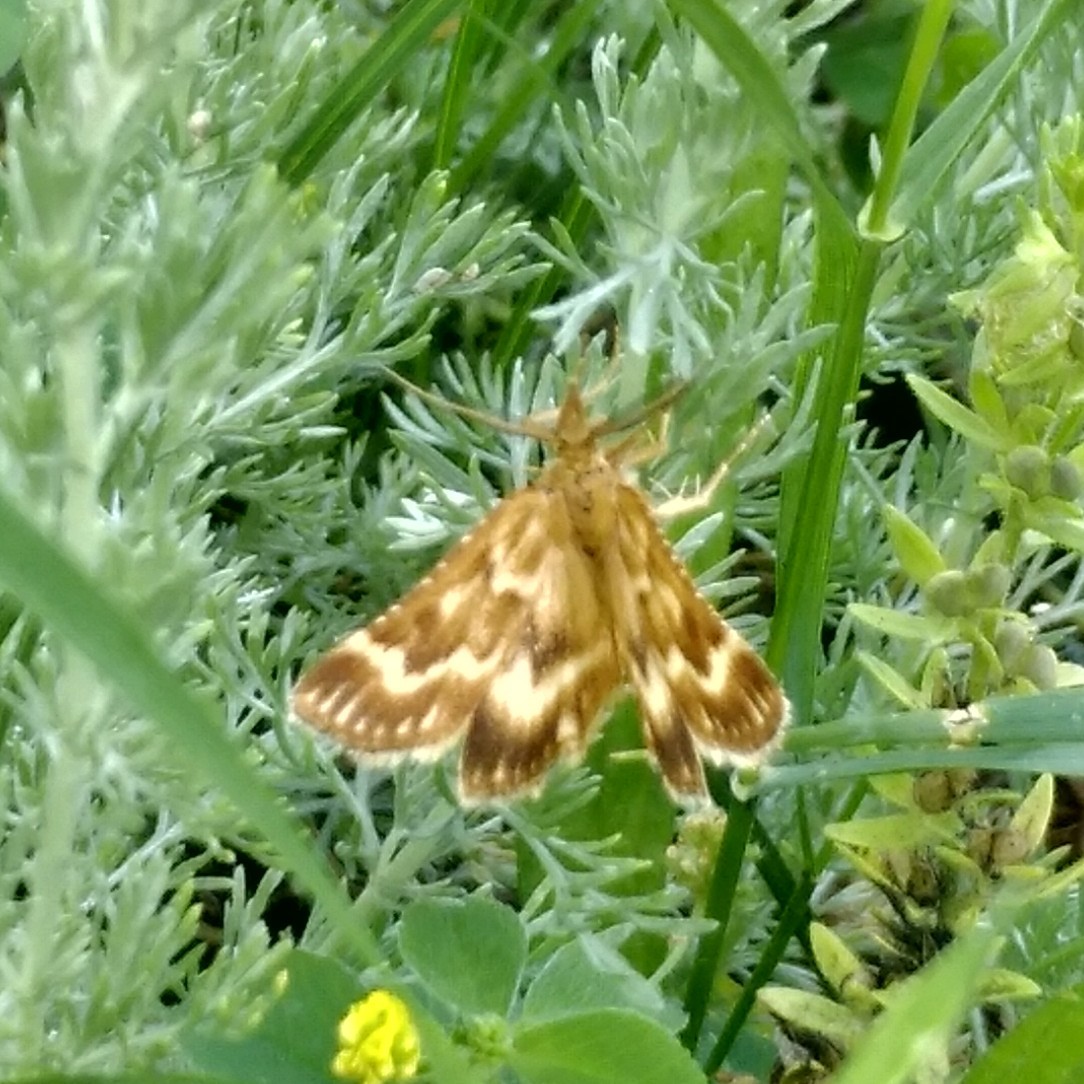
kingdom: Animalia
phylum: Arthropoda
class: Insecta
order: Lepidoptera
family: Pyralidae
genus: Synaphe
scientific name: Synaphe moldavica
